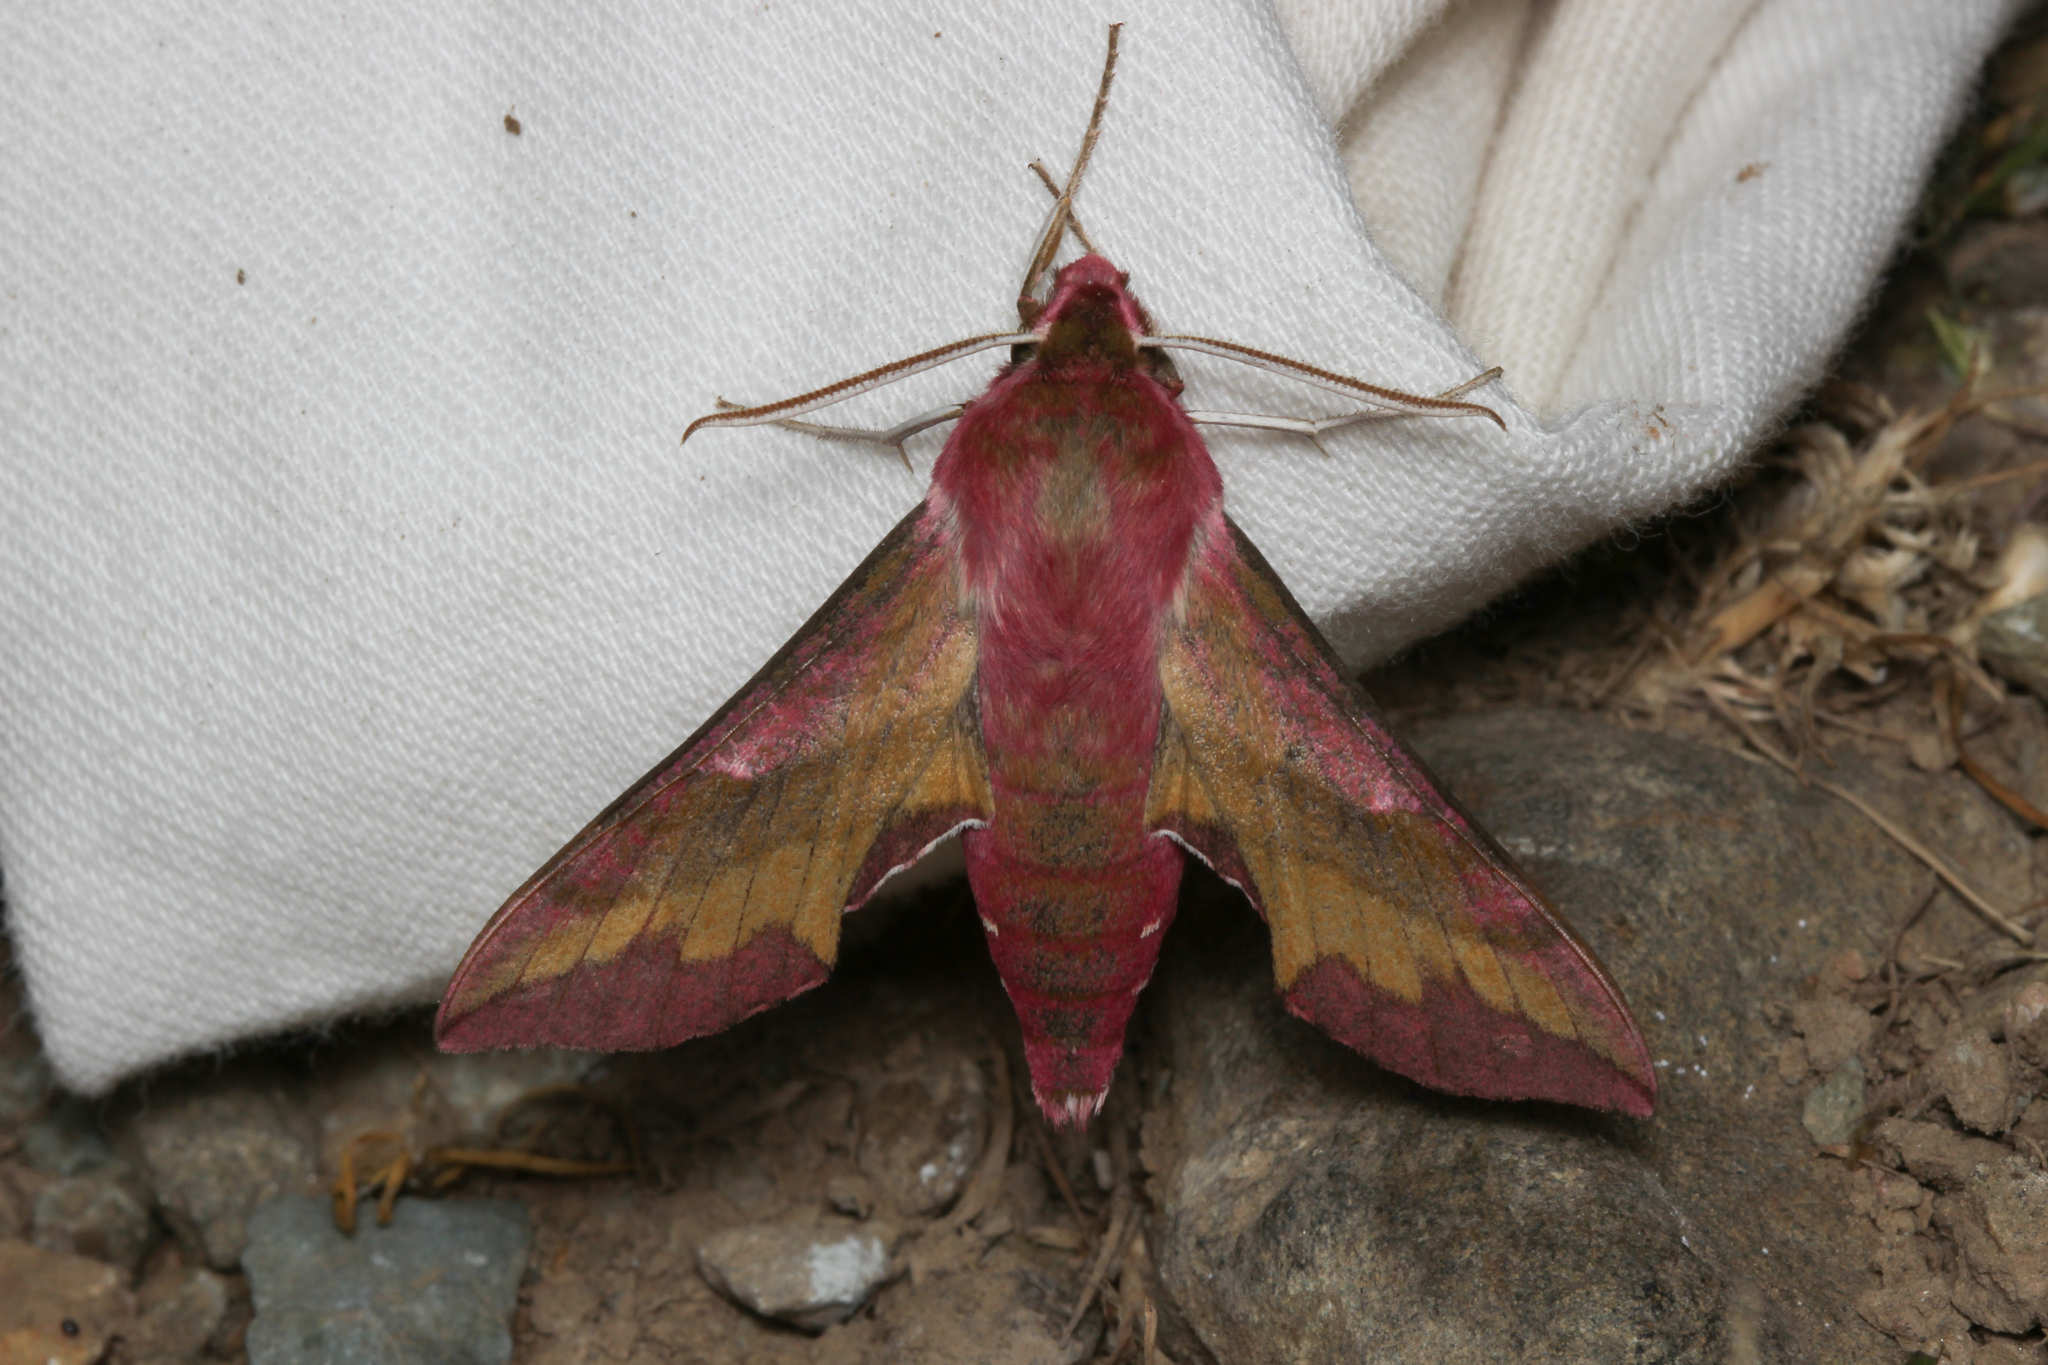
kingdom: Animalia
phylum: Arthropoda
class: Insecta
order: Lepidoptera
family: Sphingidae
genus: Deilephila
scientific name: Deilephila porcellus
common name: Small elephant hawk-moth
